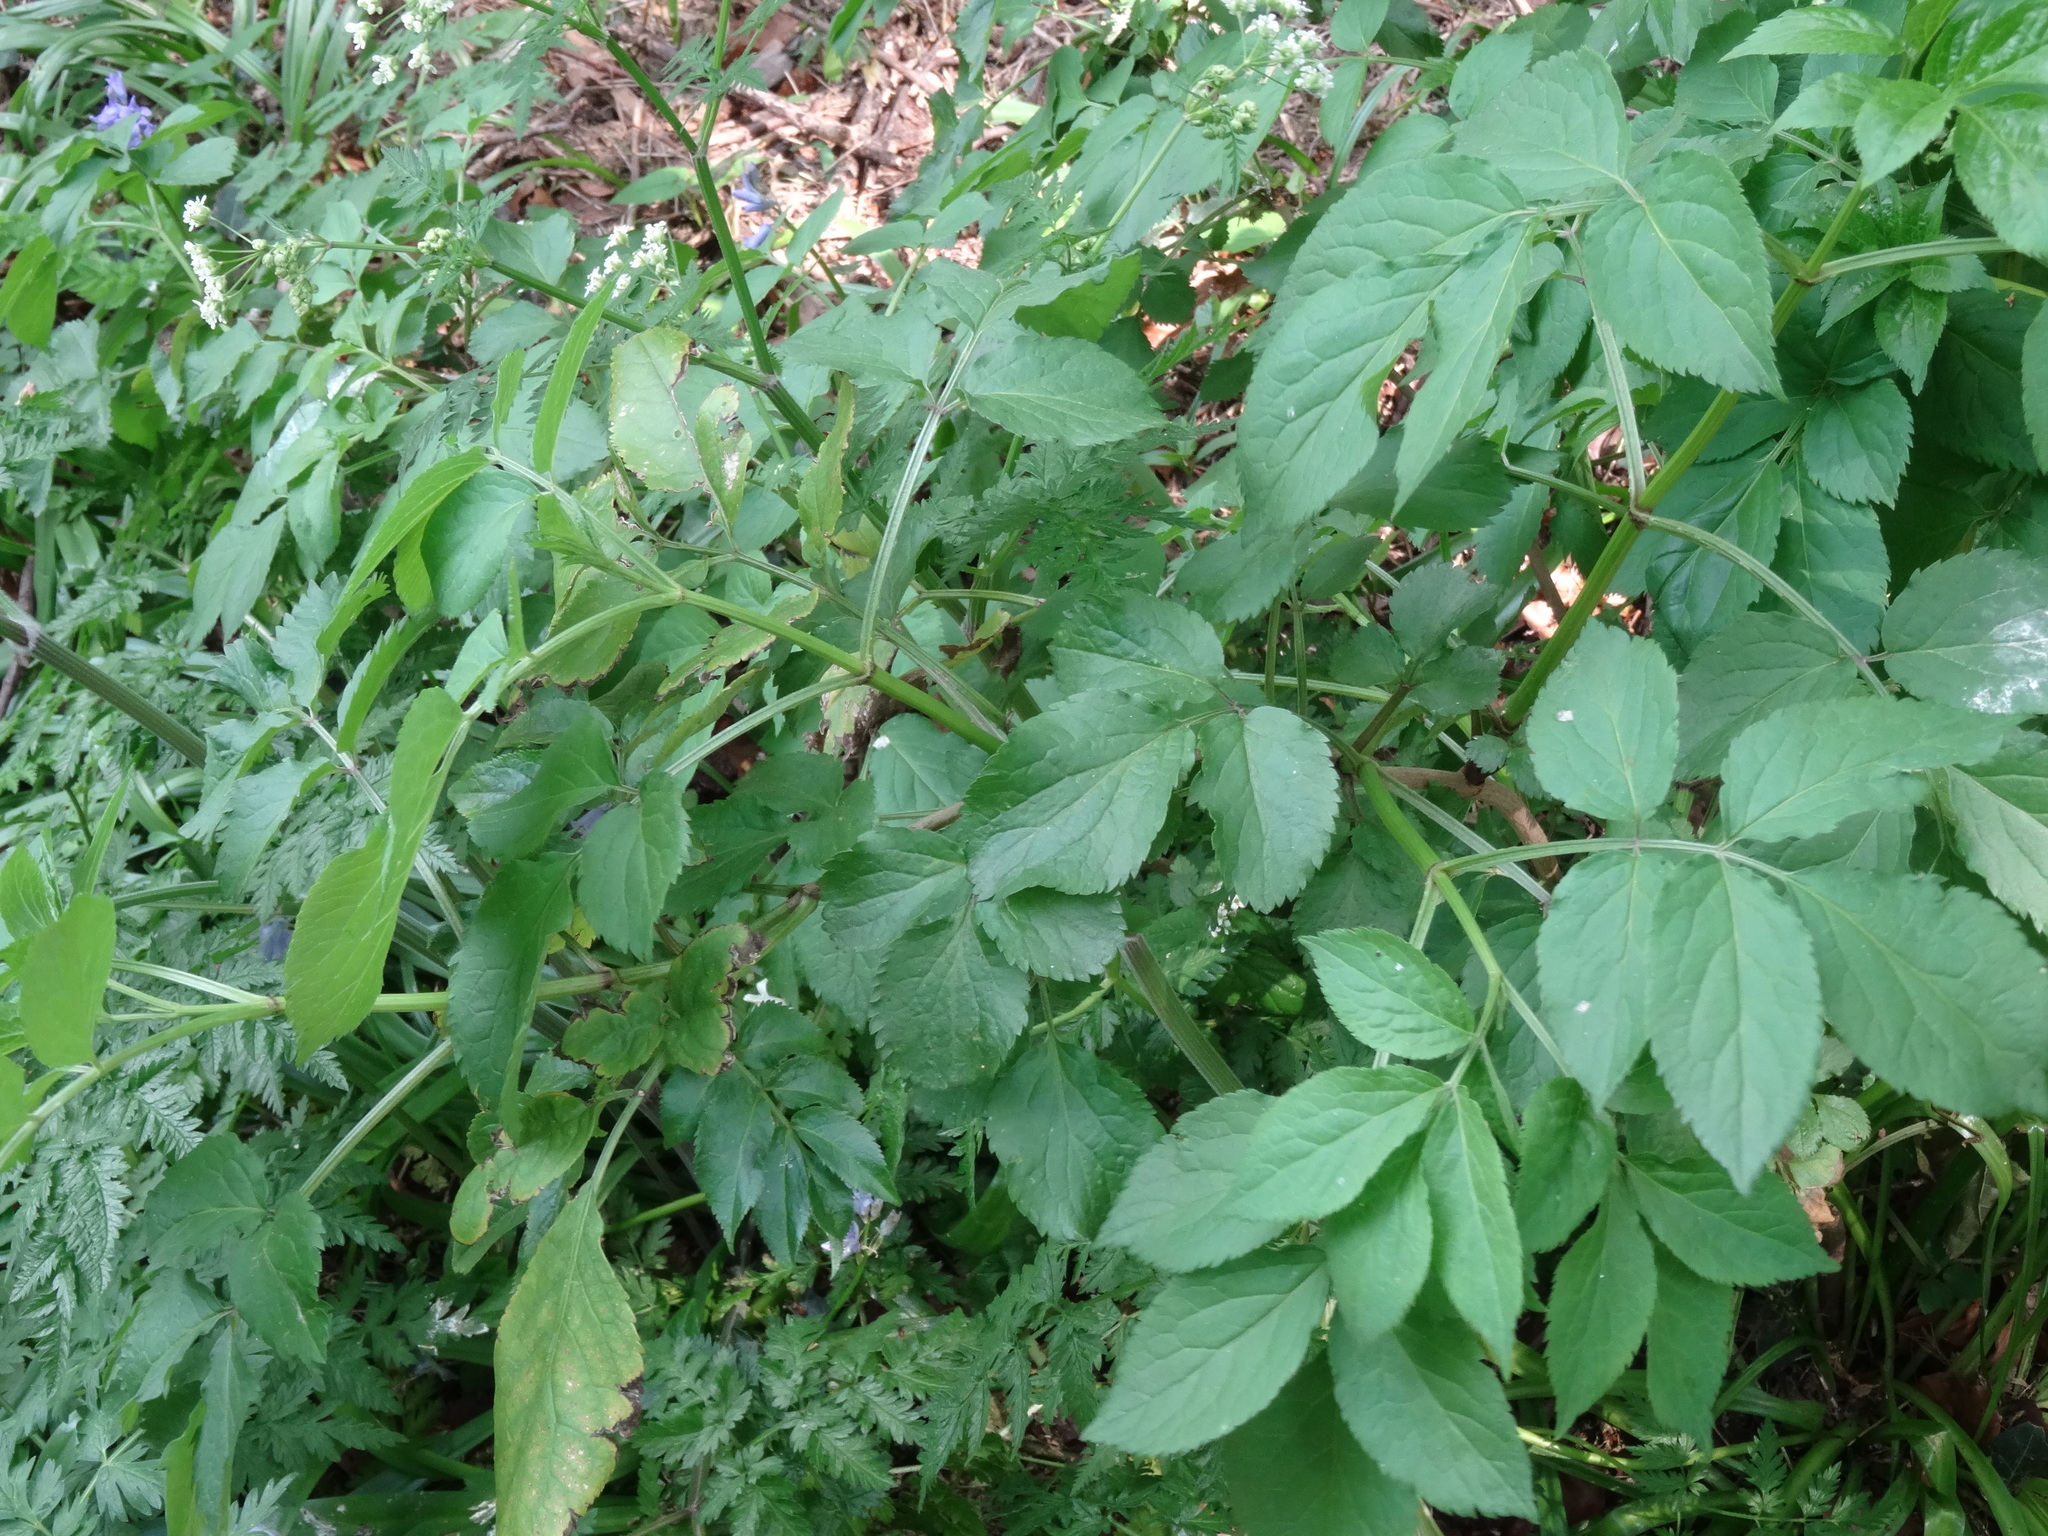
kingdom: Plantae
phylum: Tracheophyta
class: Magnoliopsida
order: Dipsacales
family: Viburnaceae
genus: Sambucus
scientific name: Sambucus nigra
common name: Elder
